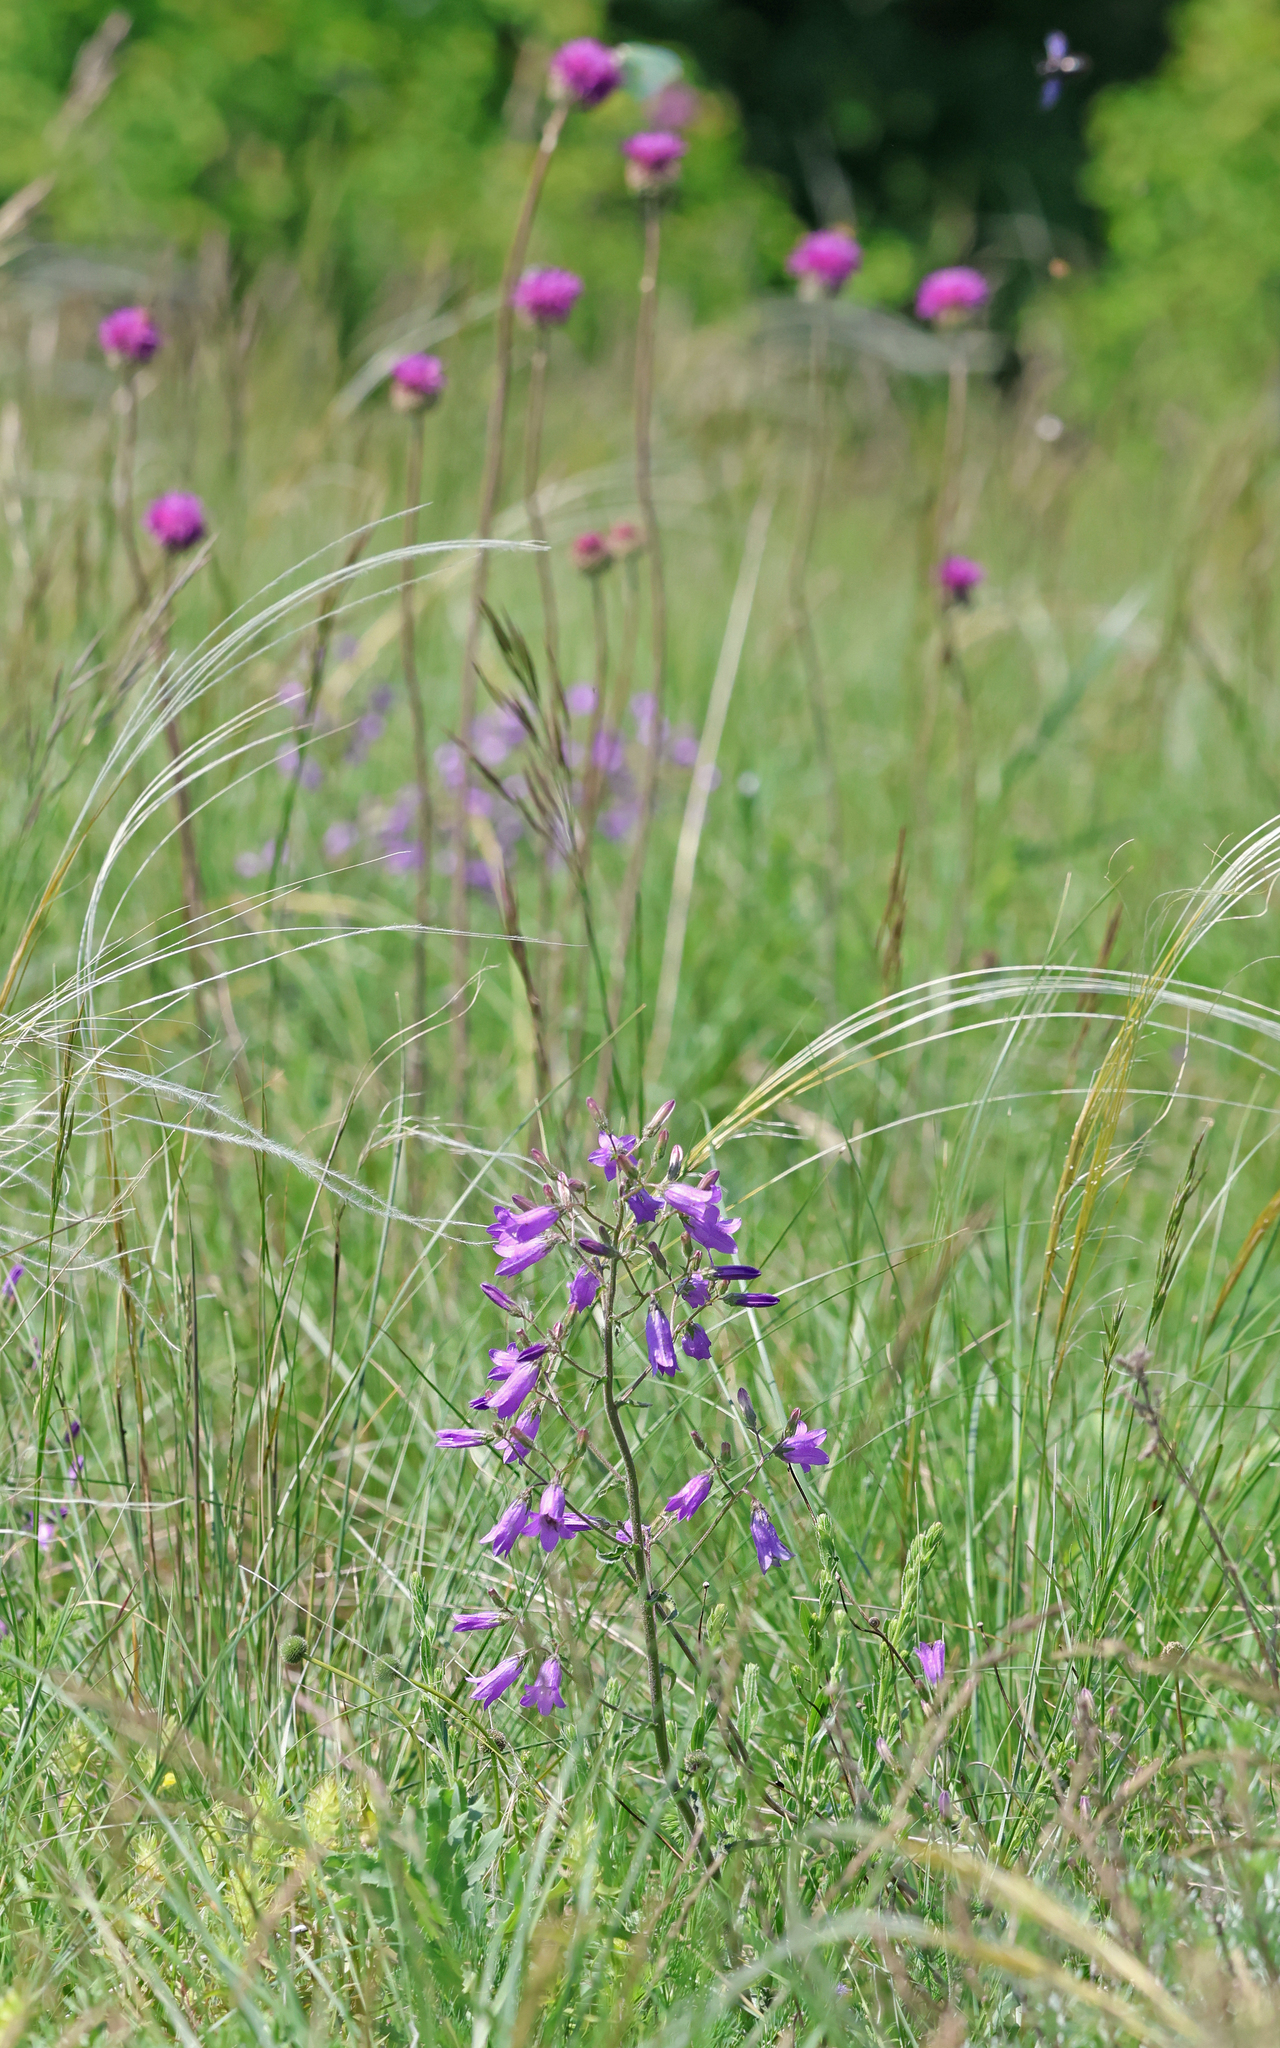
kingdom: Plantae
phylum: Tracheophyta
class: Magnoliopsida
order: Asterales
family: Campanulaceae
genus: Campanula
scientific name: Campanula sibirica
